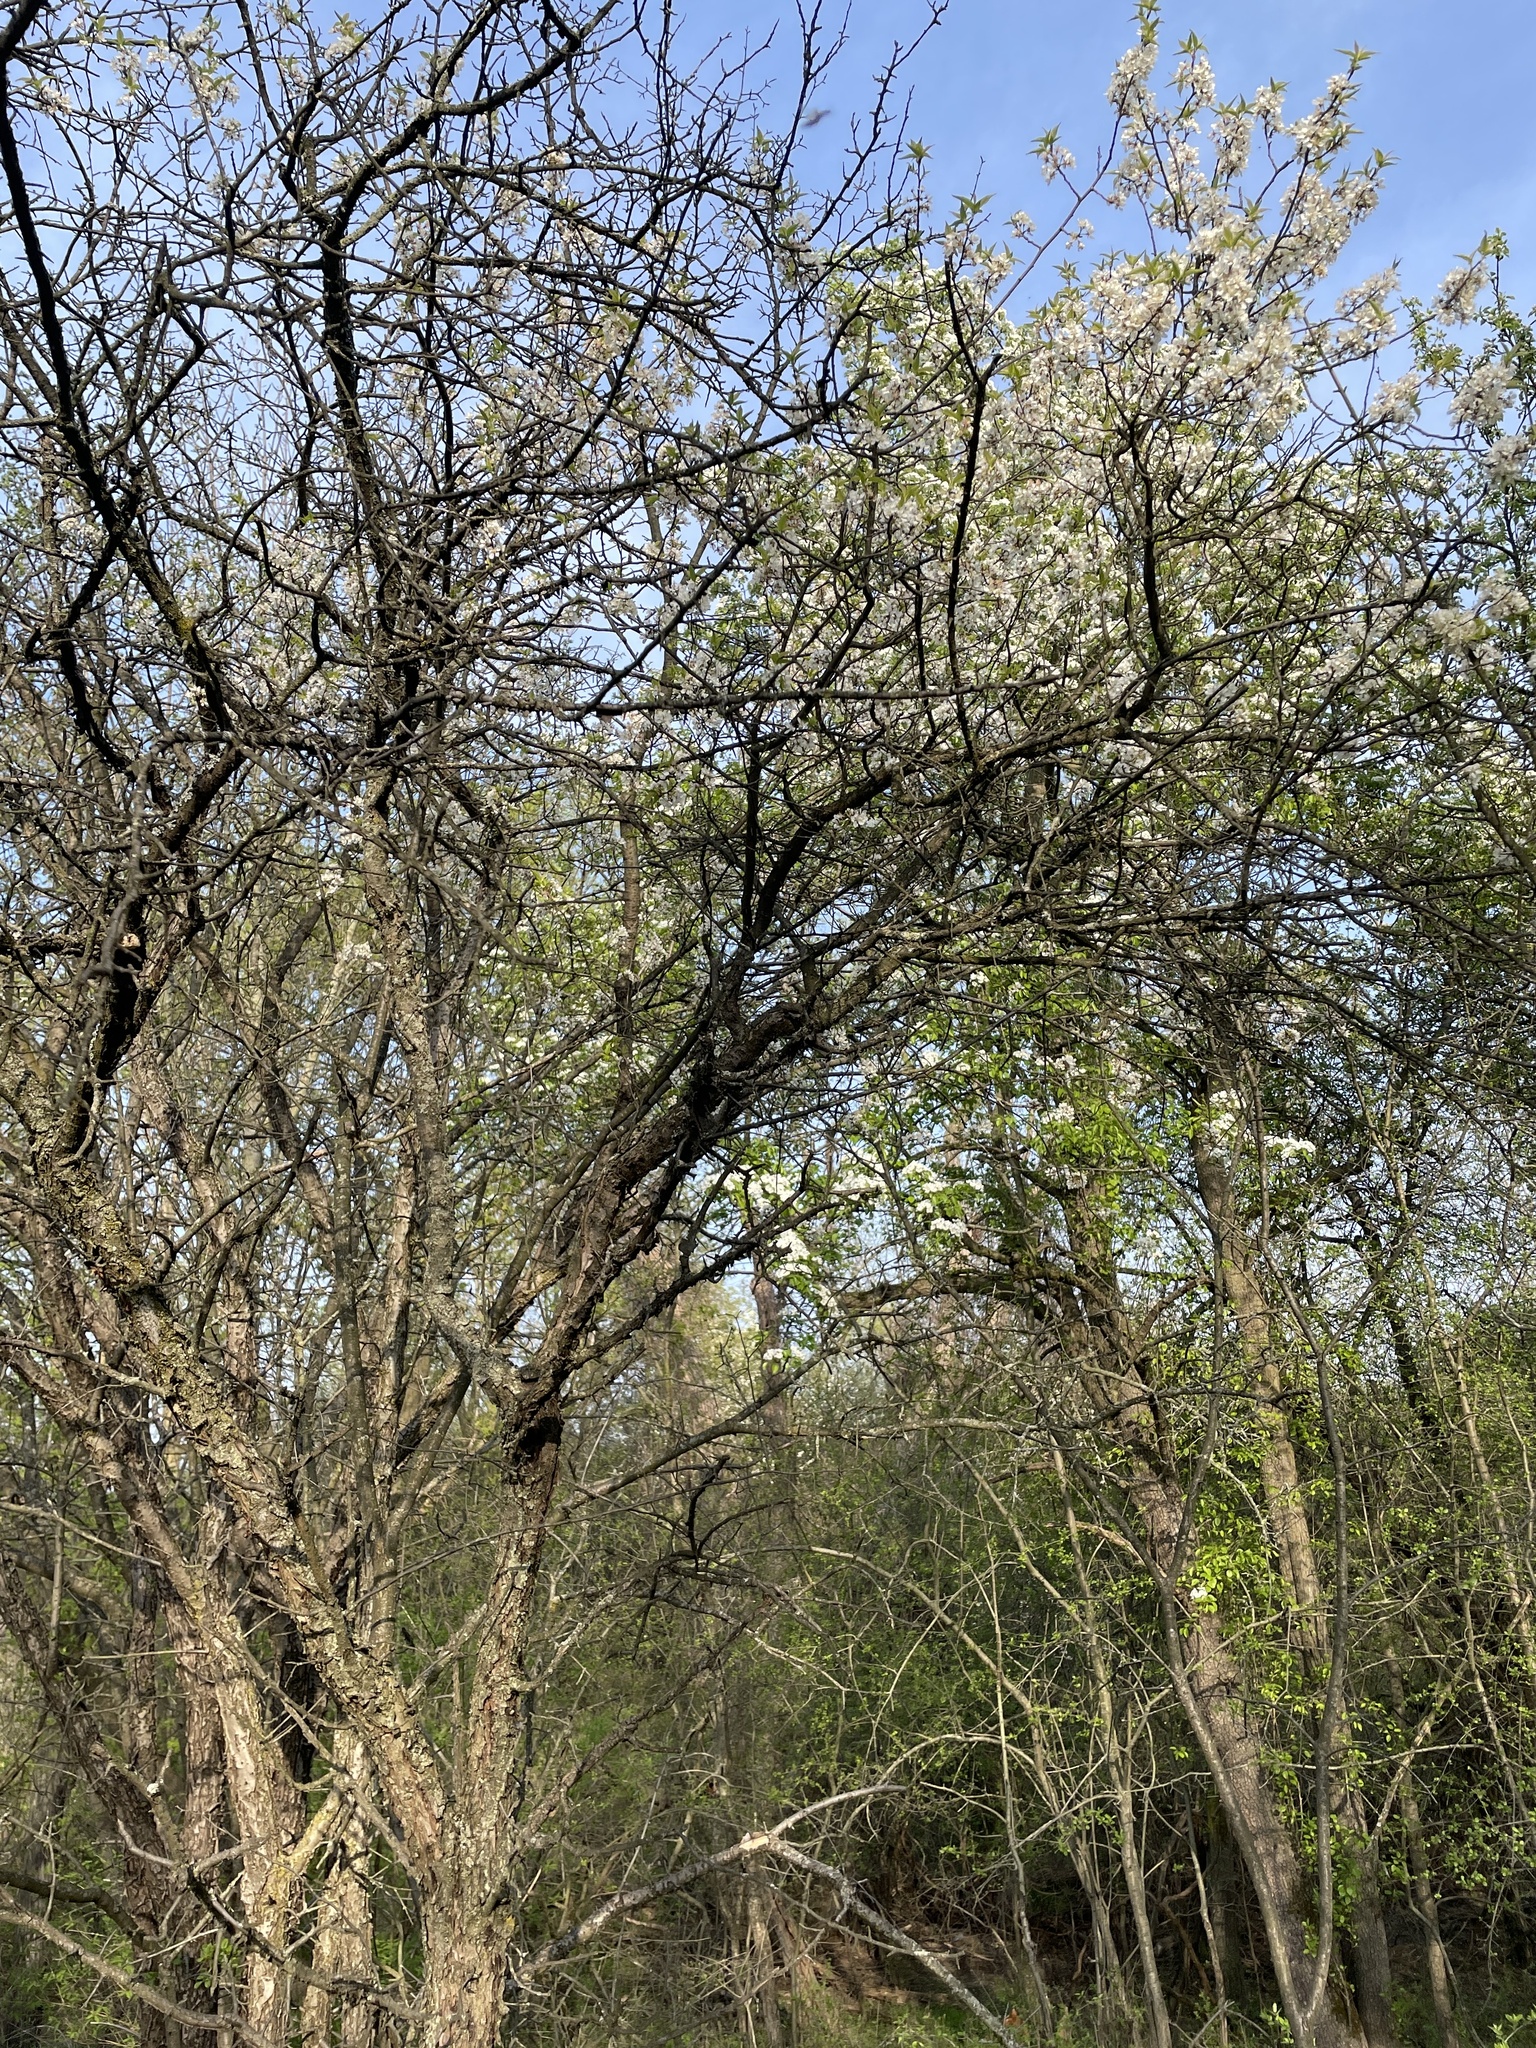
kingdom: Plantae
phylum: Tracheophyta
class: Magnoliopsida
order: Rosales
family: Rosaceae
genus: Prunus
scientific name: Prunus americana
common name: American plum
